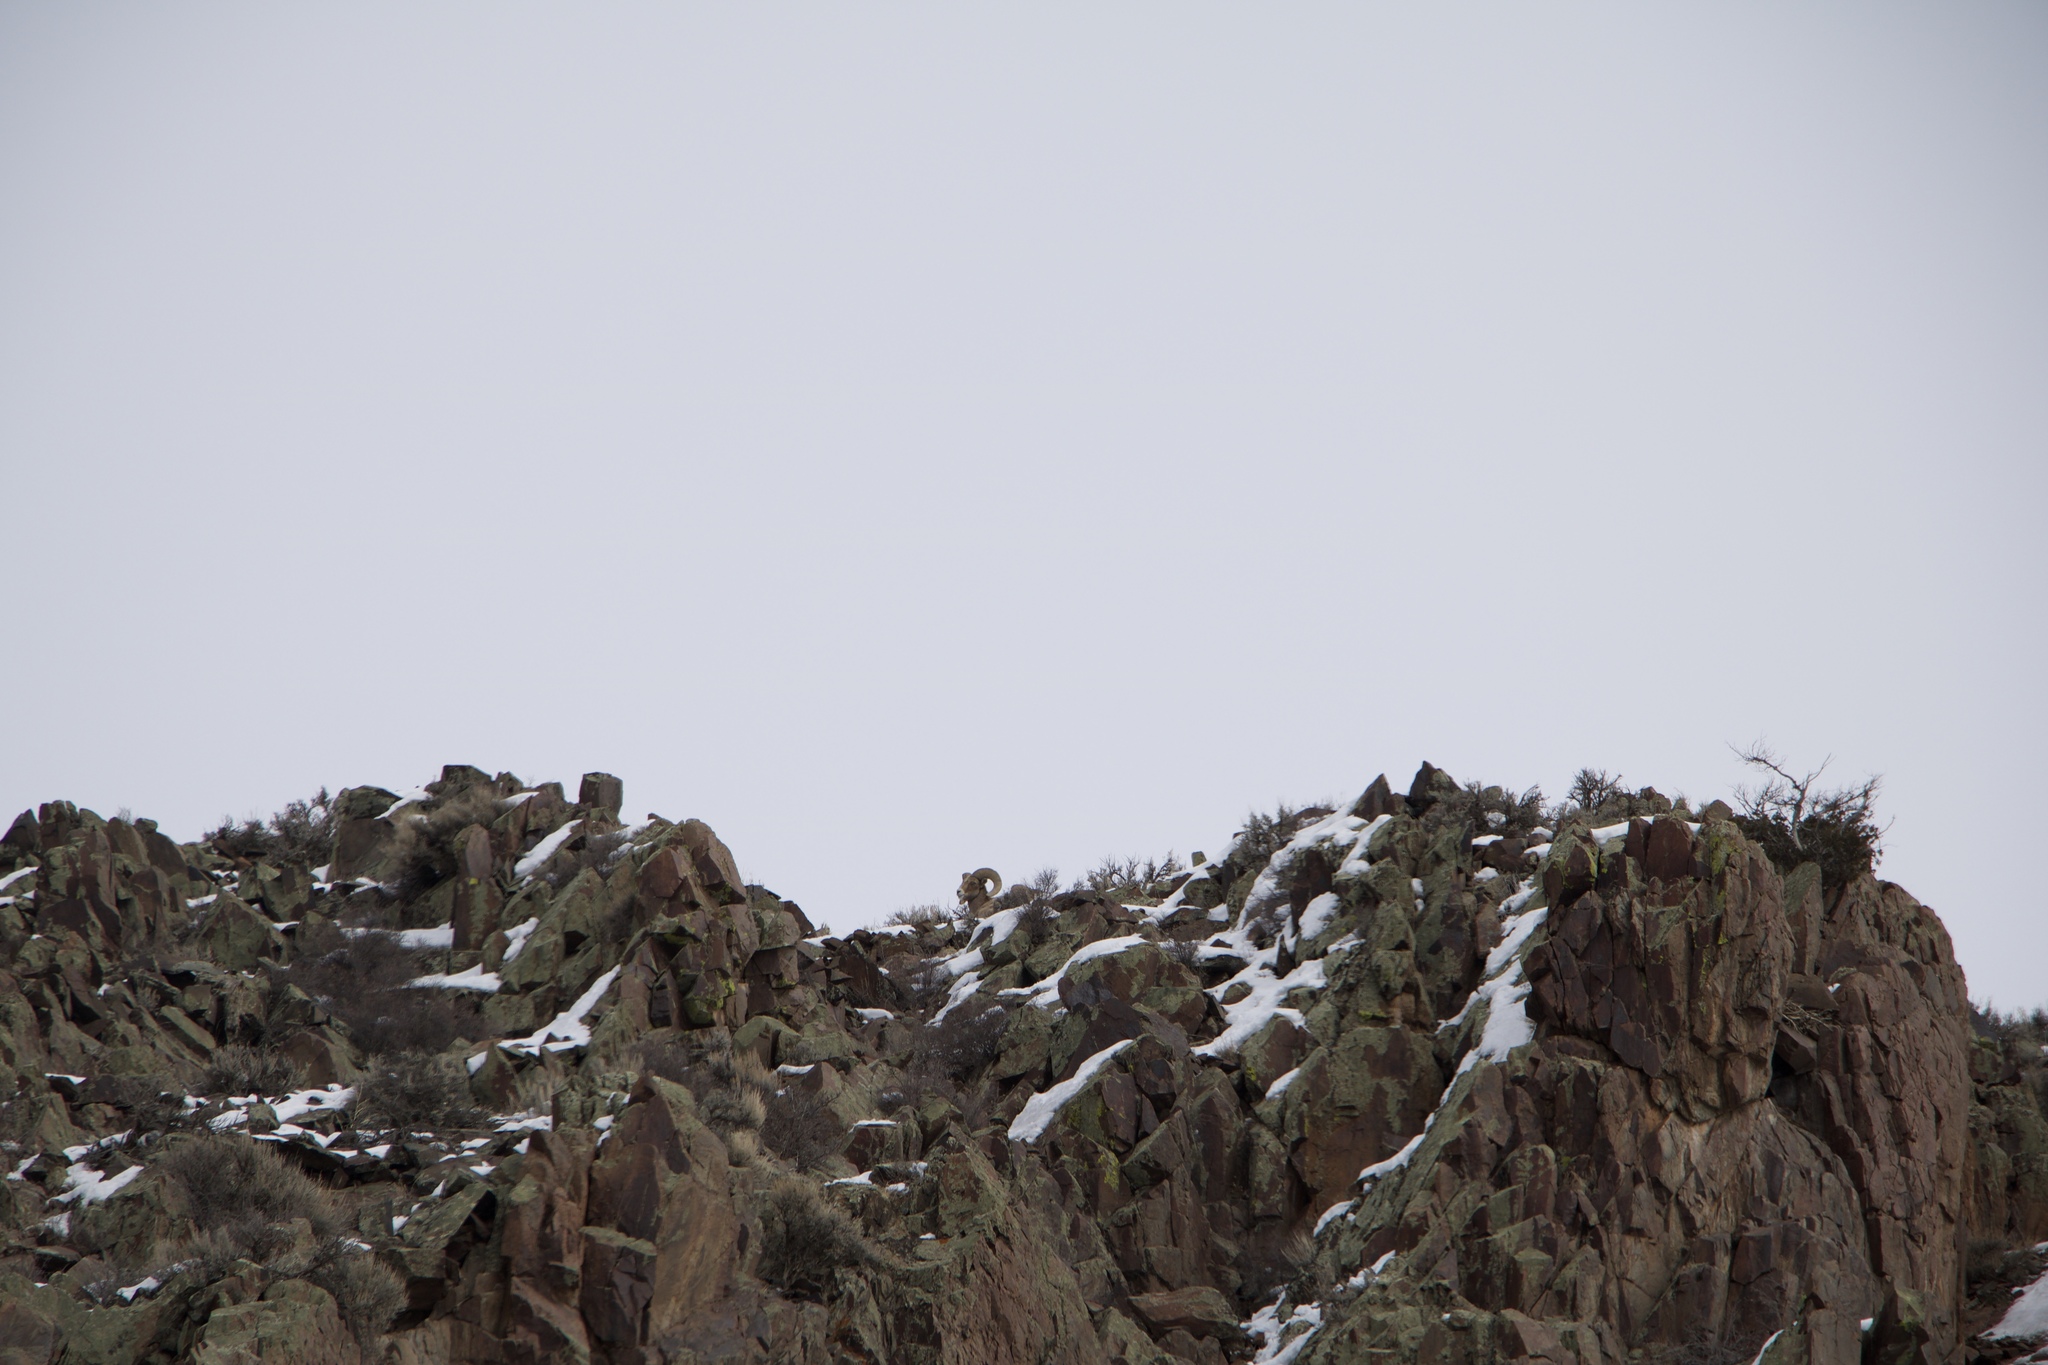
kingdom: Animalia
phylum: Chordata
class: Mammalia
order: Artiodactyla
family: Bovidae
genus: Ovis
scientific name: Ovis canadensis
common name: Bighorn sheep
